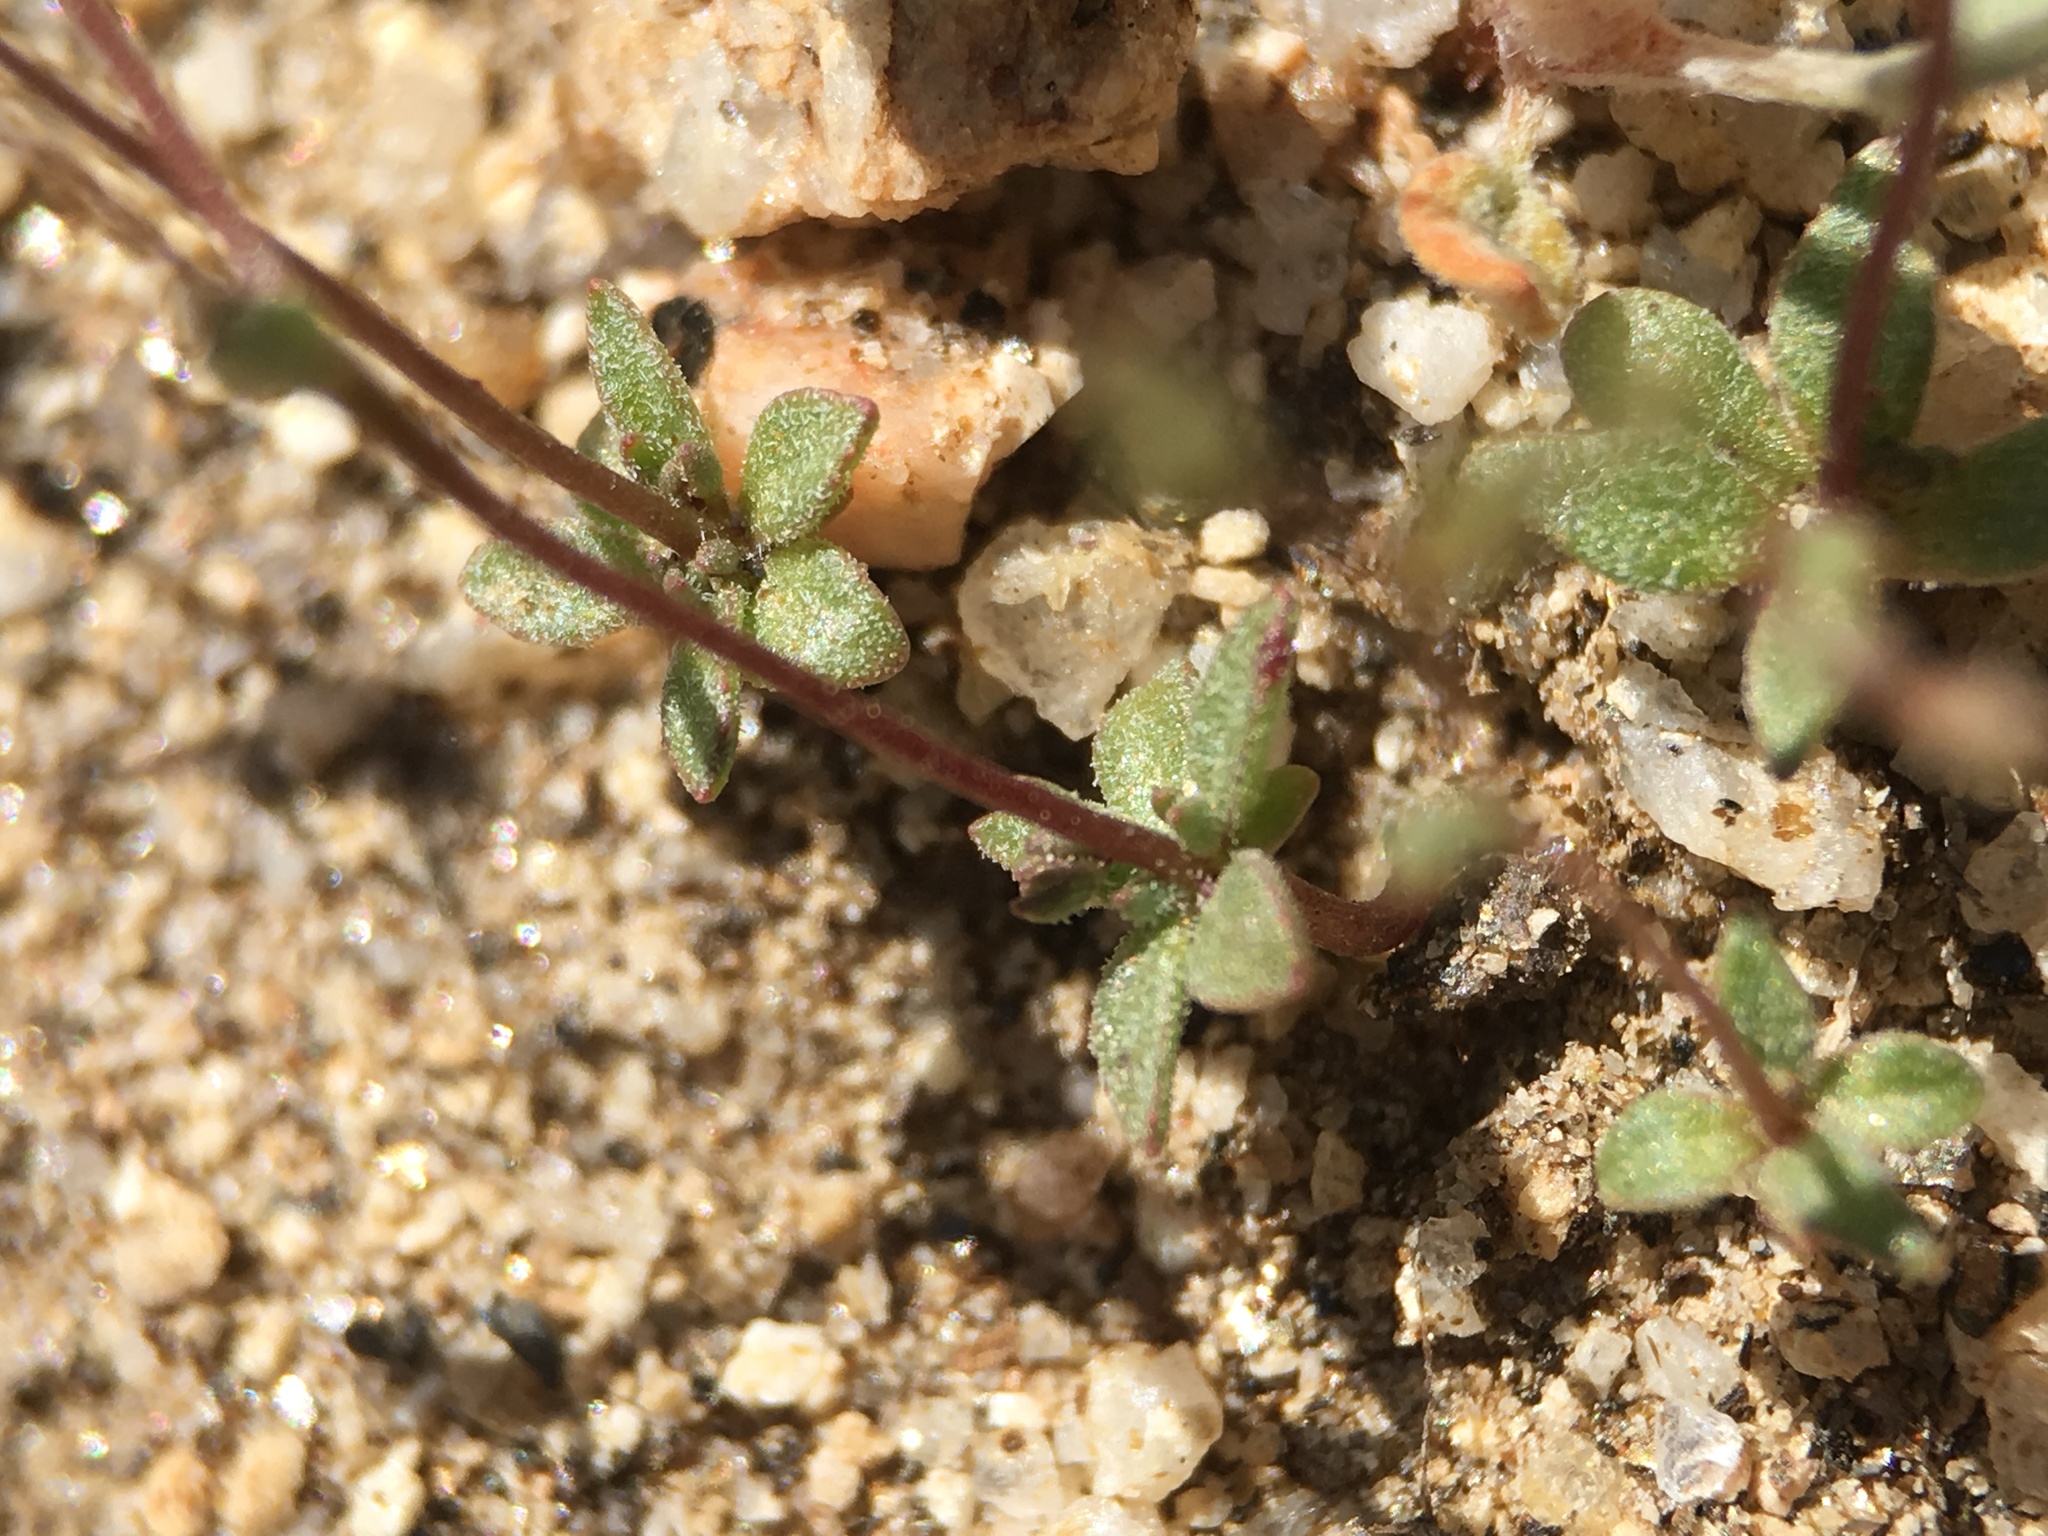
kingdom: Plantae
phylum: Tracheophyta
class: Magnoliopsida
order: Asterales
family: Campanulaceae
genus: Nemacladus
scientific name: Nemacladus sigmoideus
